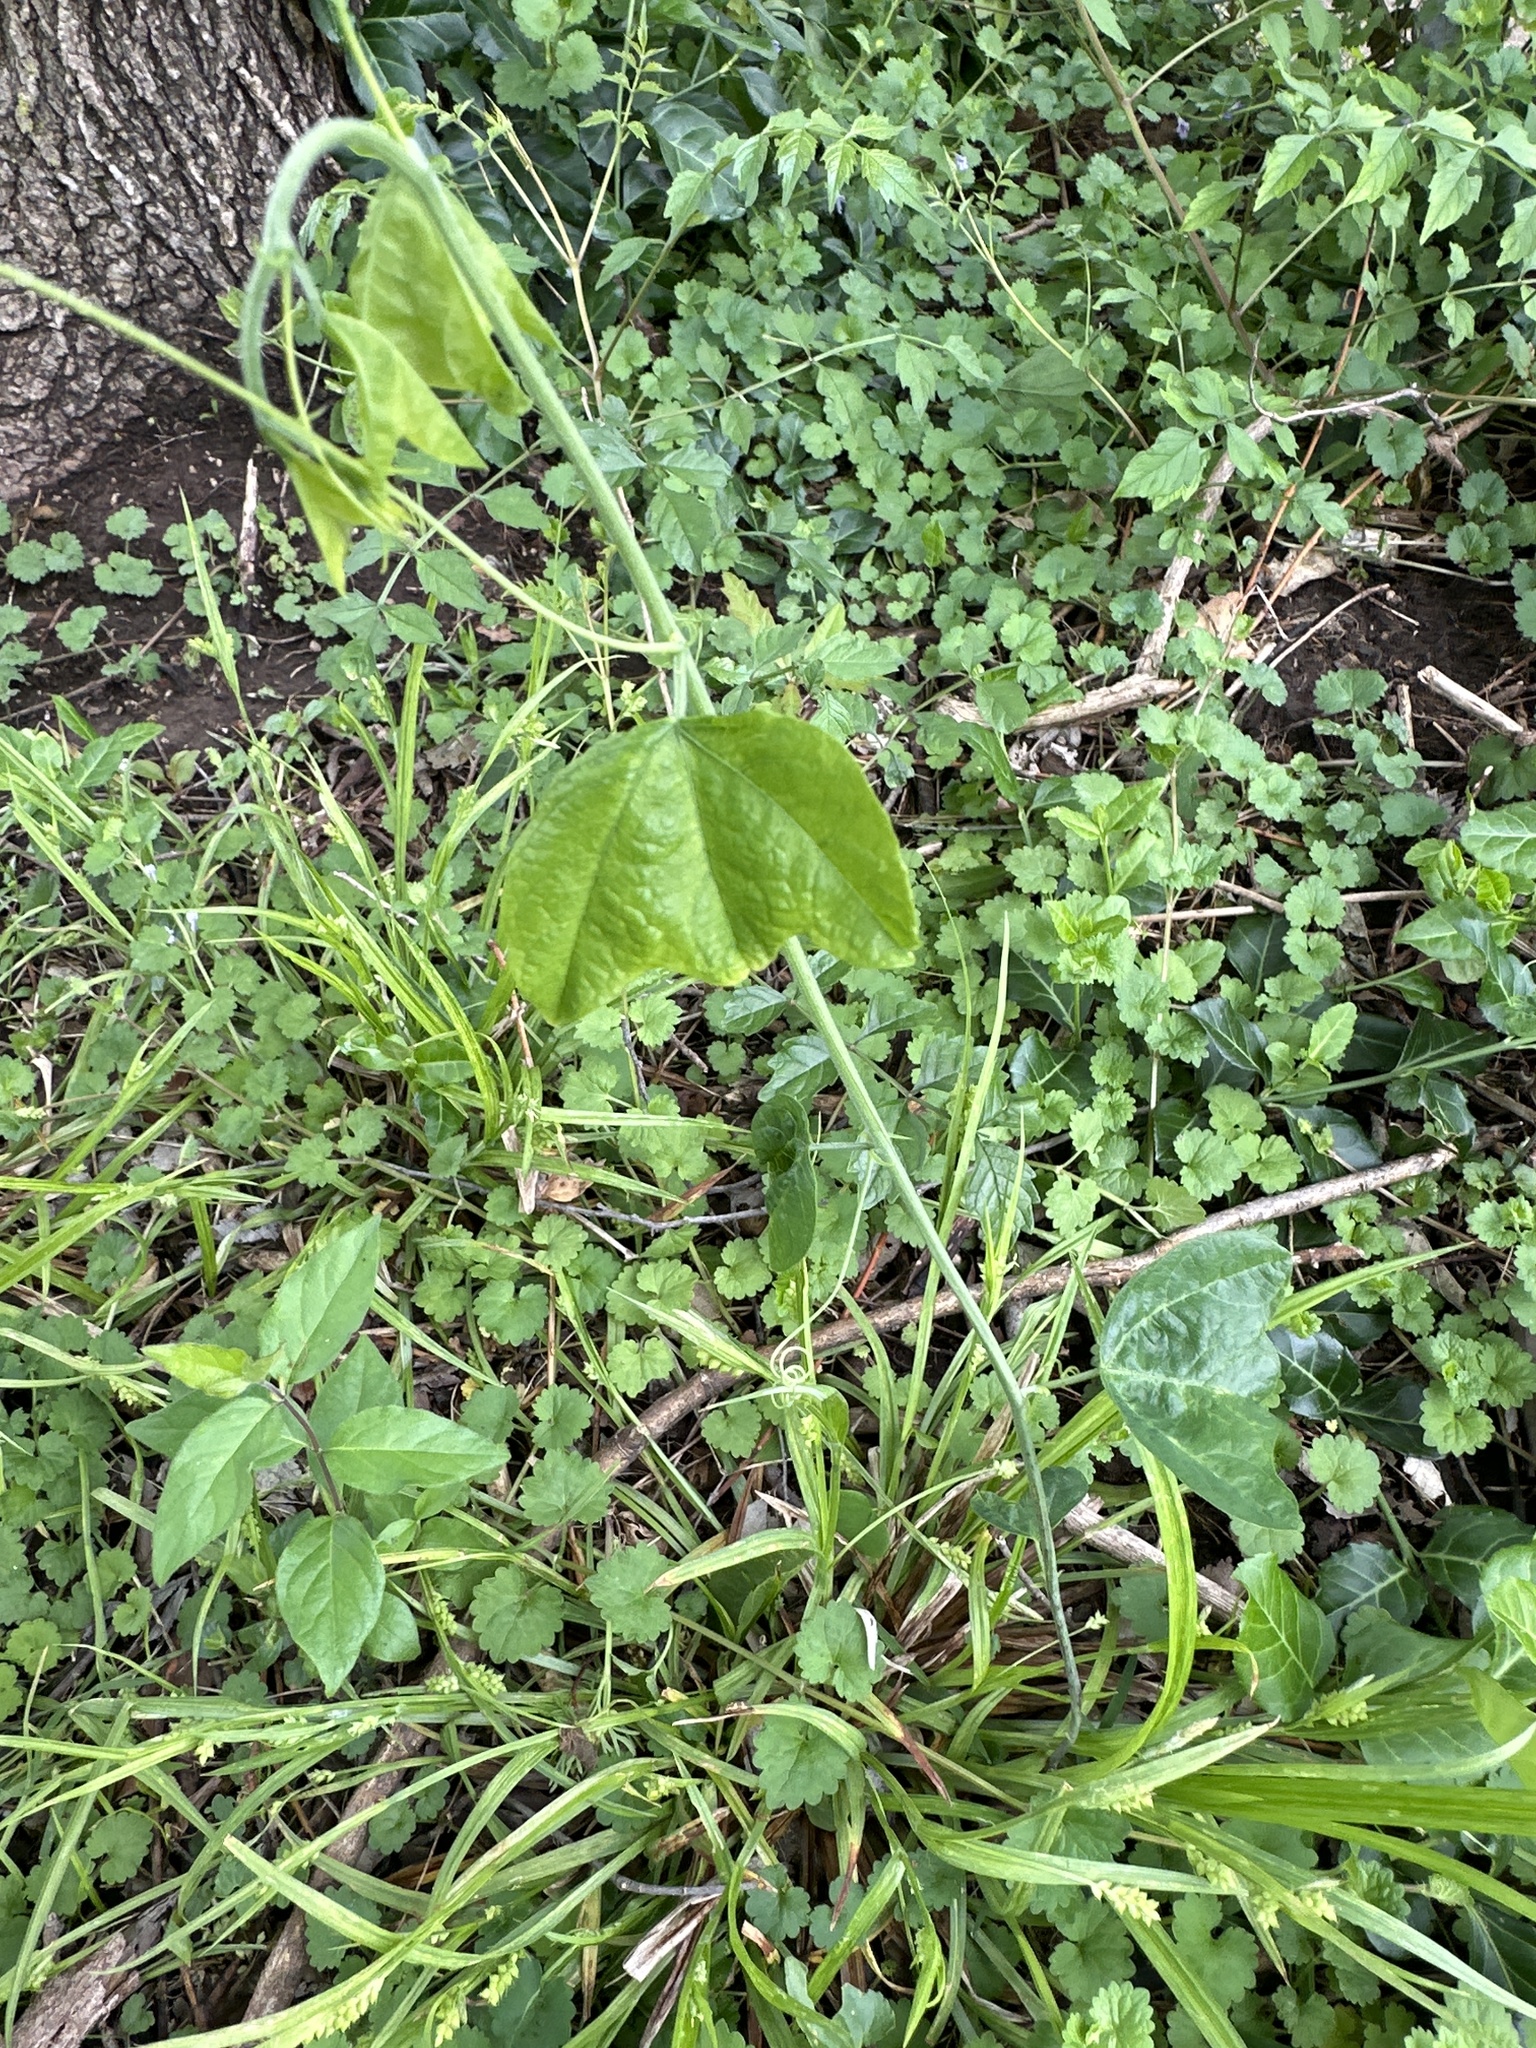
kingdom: Plantae
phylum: Tracheophyta
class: Magnoliopsida
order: Malpighiales
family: Passifloraceae
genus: Passiflora
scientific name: Passiflora lutea
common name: Yellow passionflower
